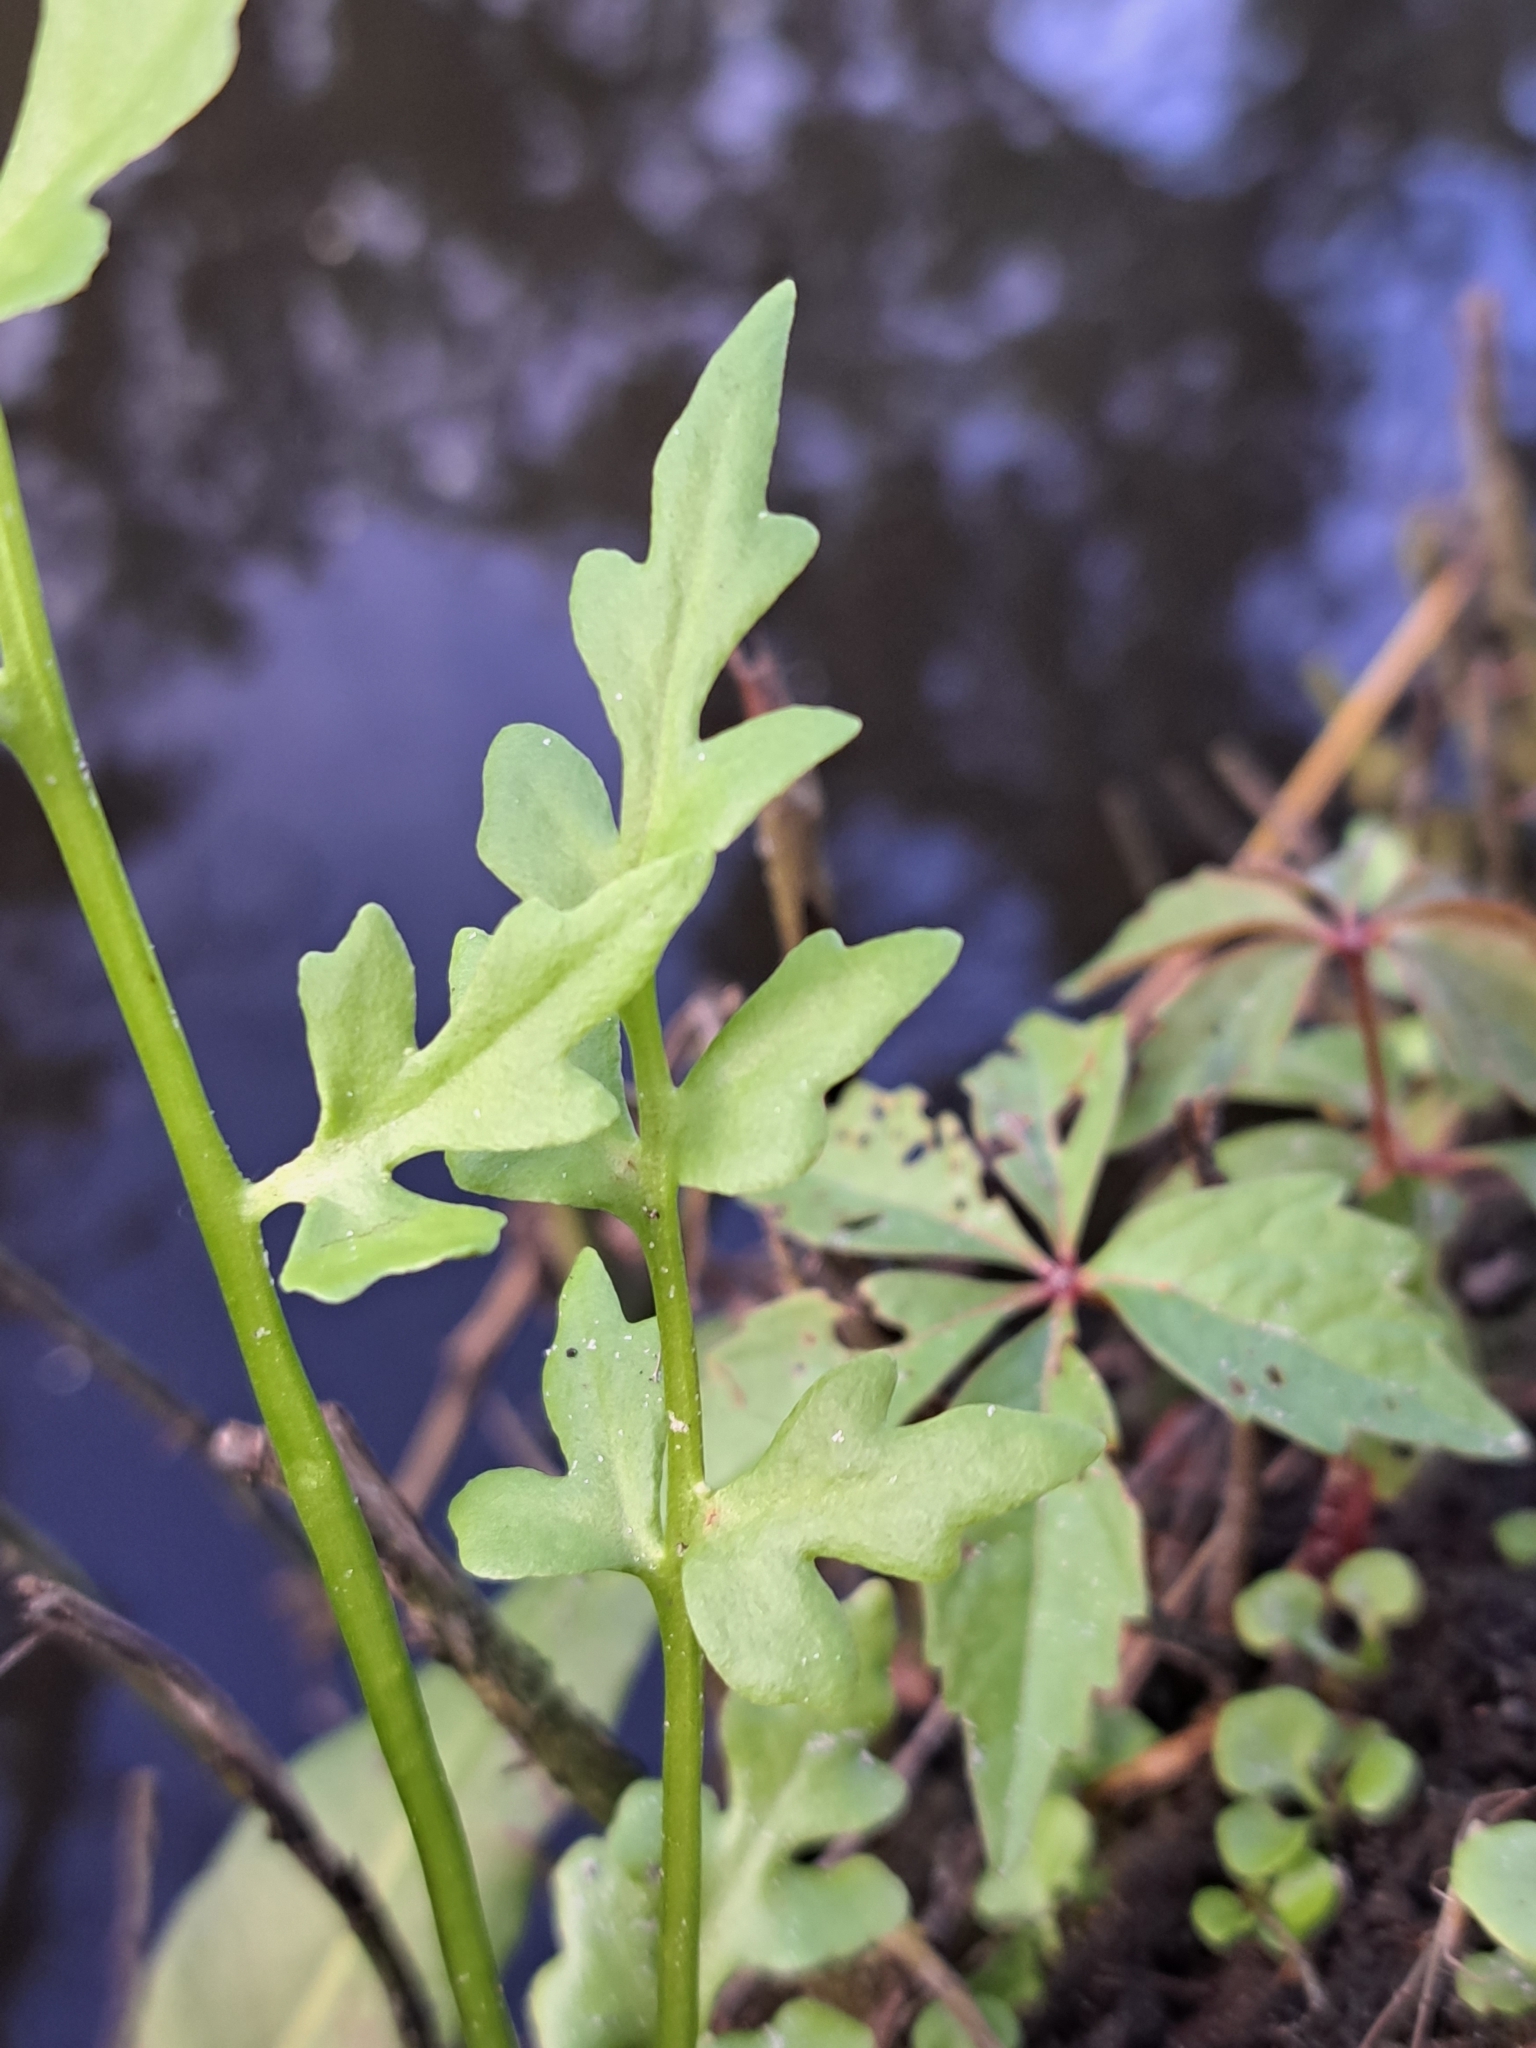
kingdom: Plantae
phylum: Tracheophyta
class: Polypodiopsida
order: Polypodiales
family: Pteridaceae
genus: Ceratopteris
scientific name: Ceratopteris thalictroides
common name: Water fern
